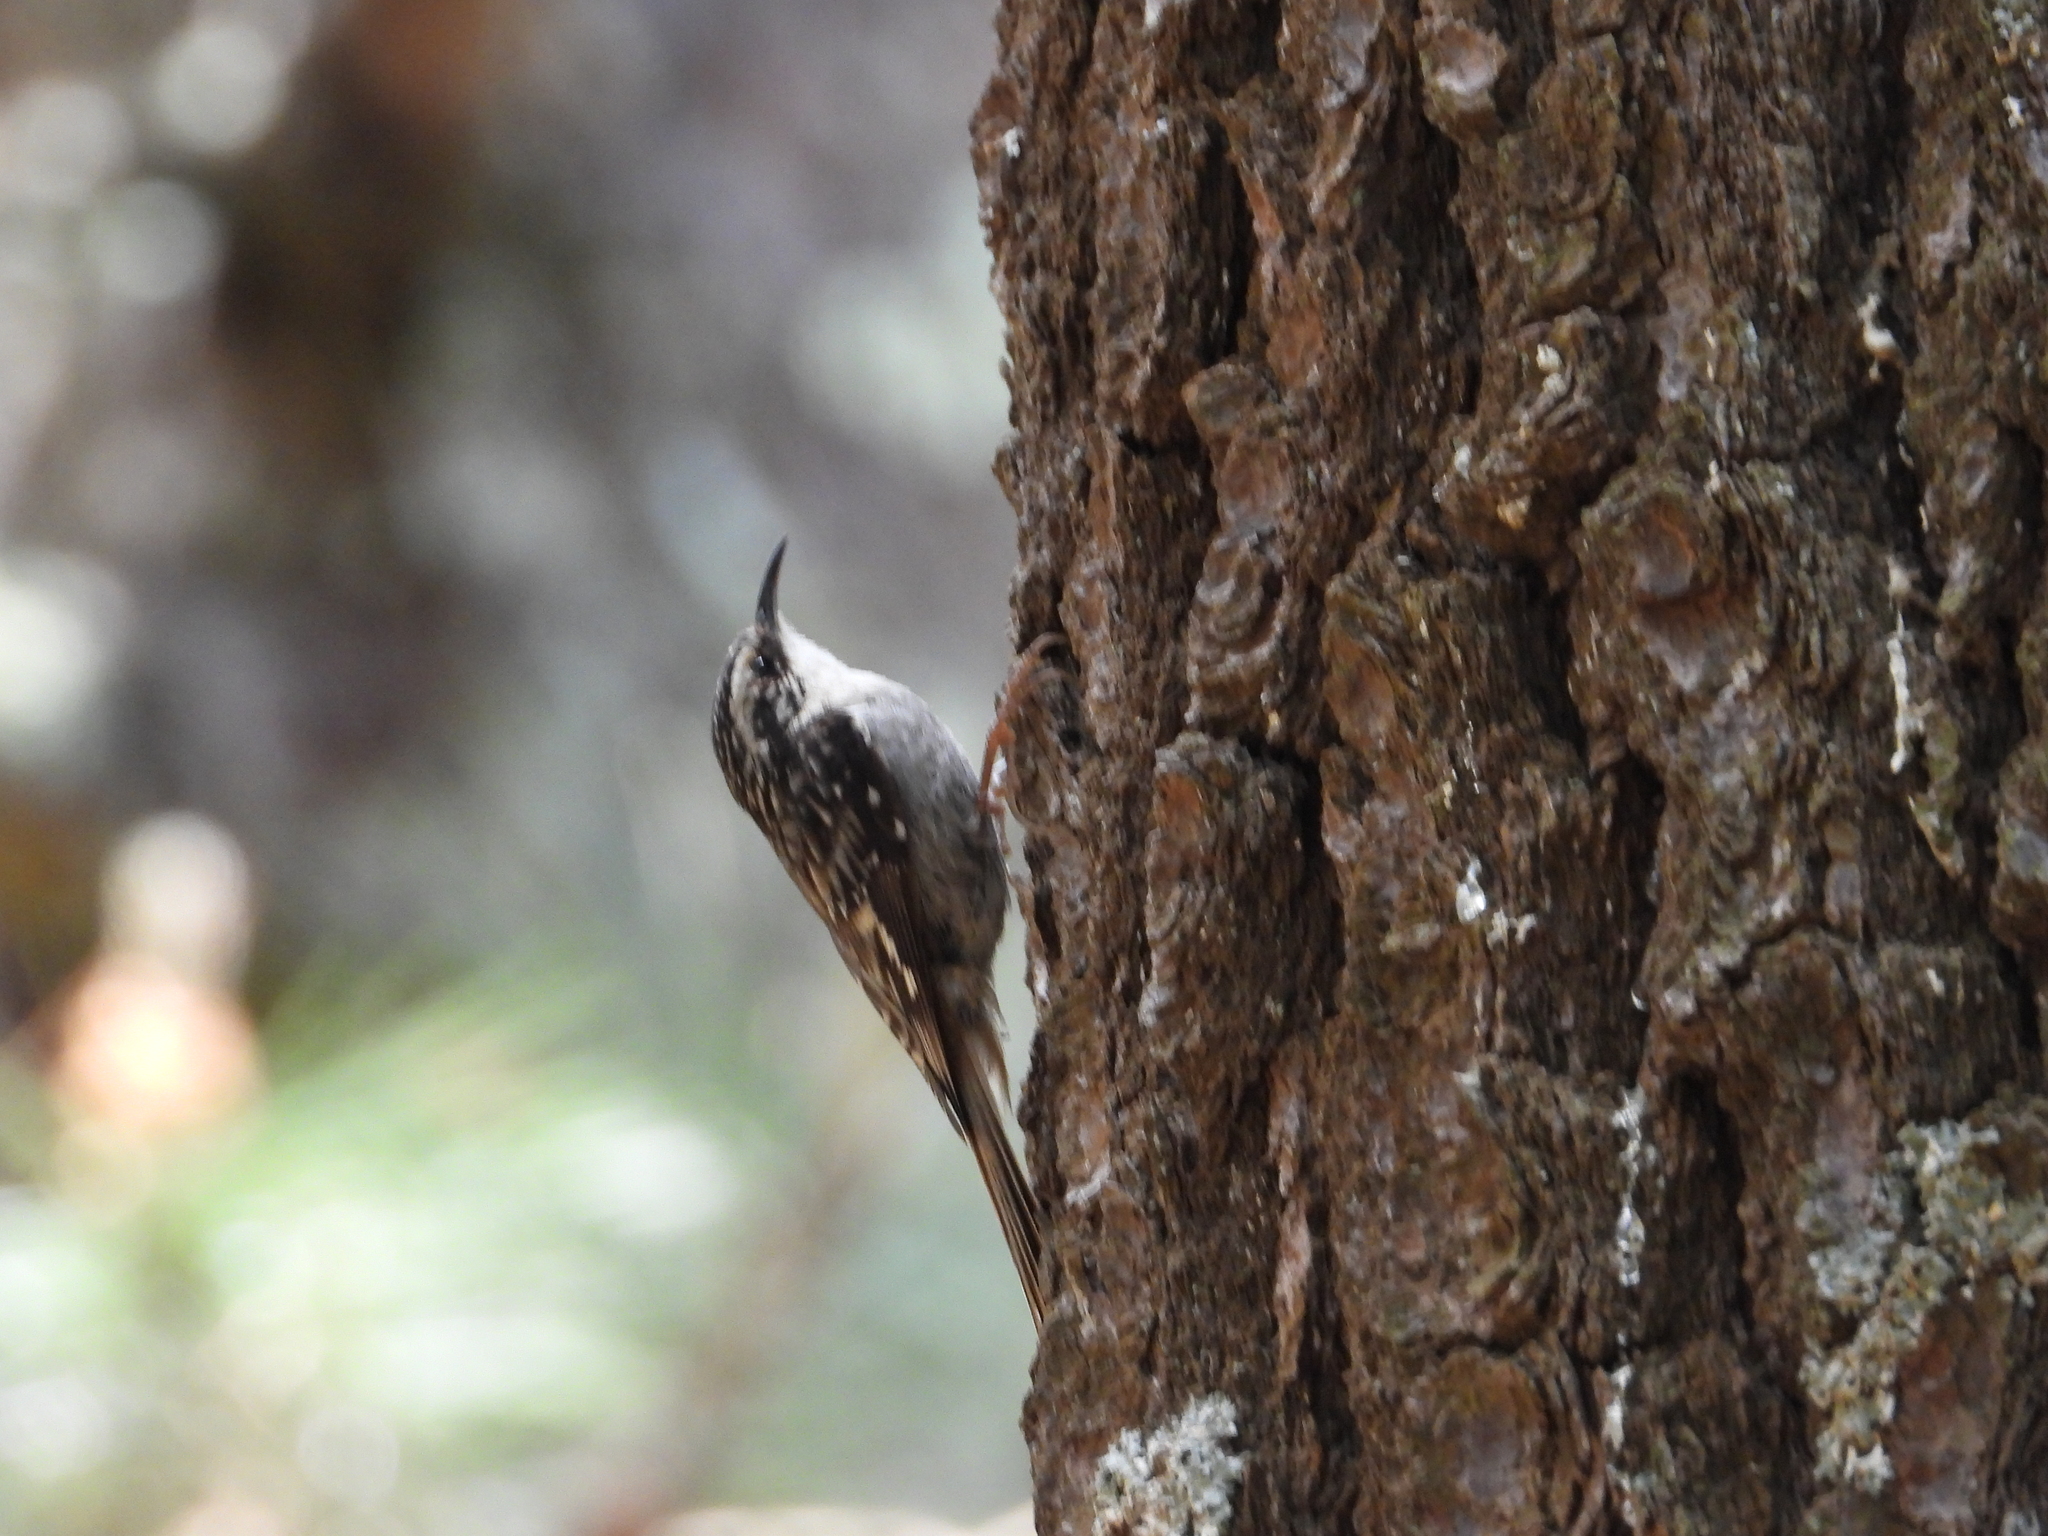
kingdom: Animalia
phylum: Chordata
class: Aves
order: Passeriformes
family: Certhiidae
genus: Certhia
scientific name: Certhia americana
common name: Brown creeper
